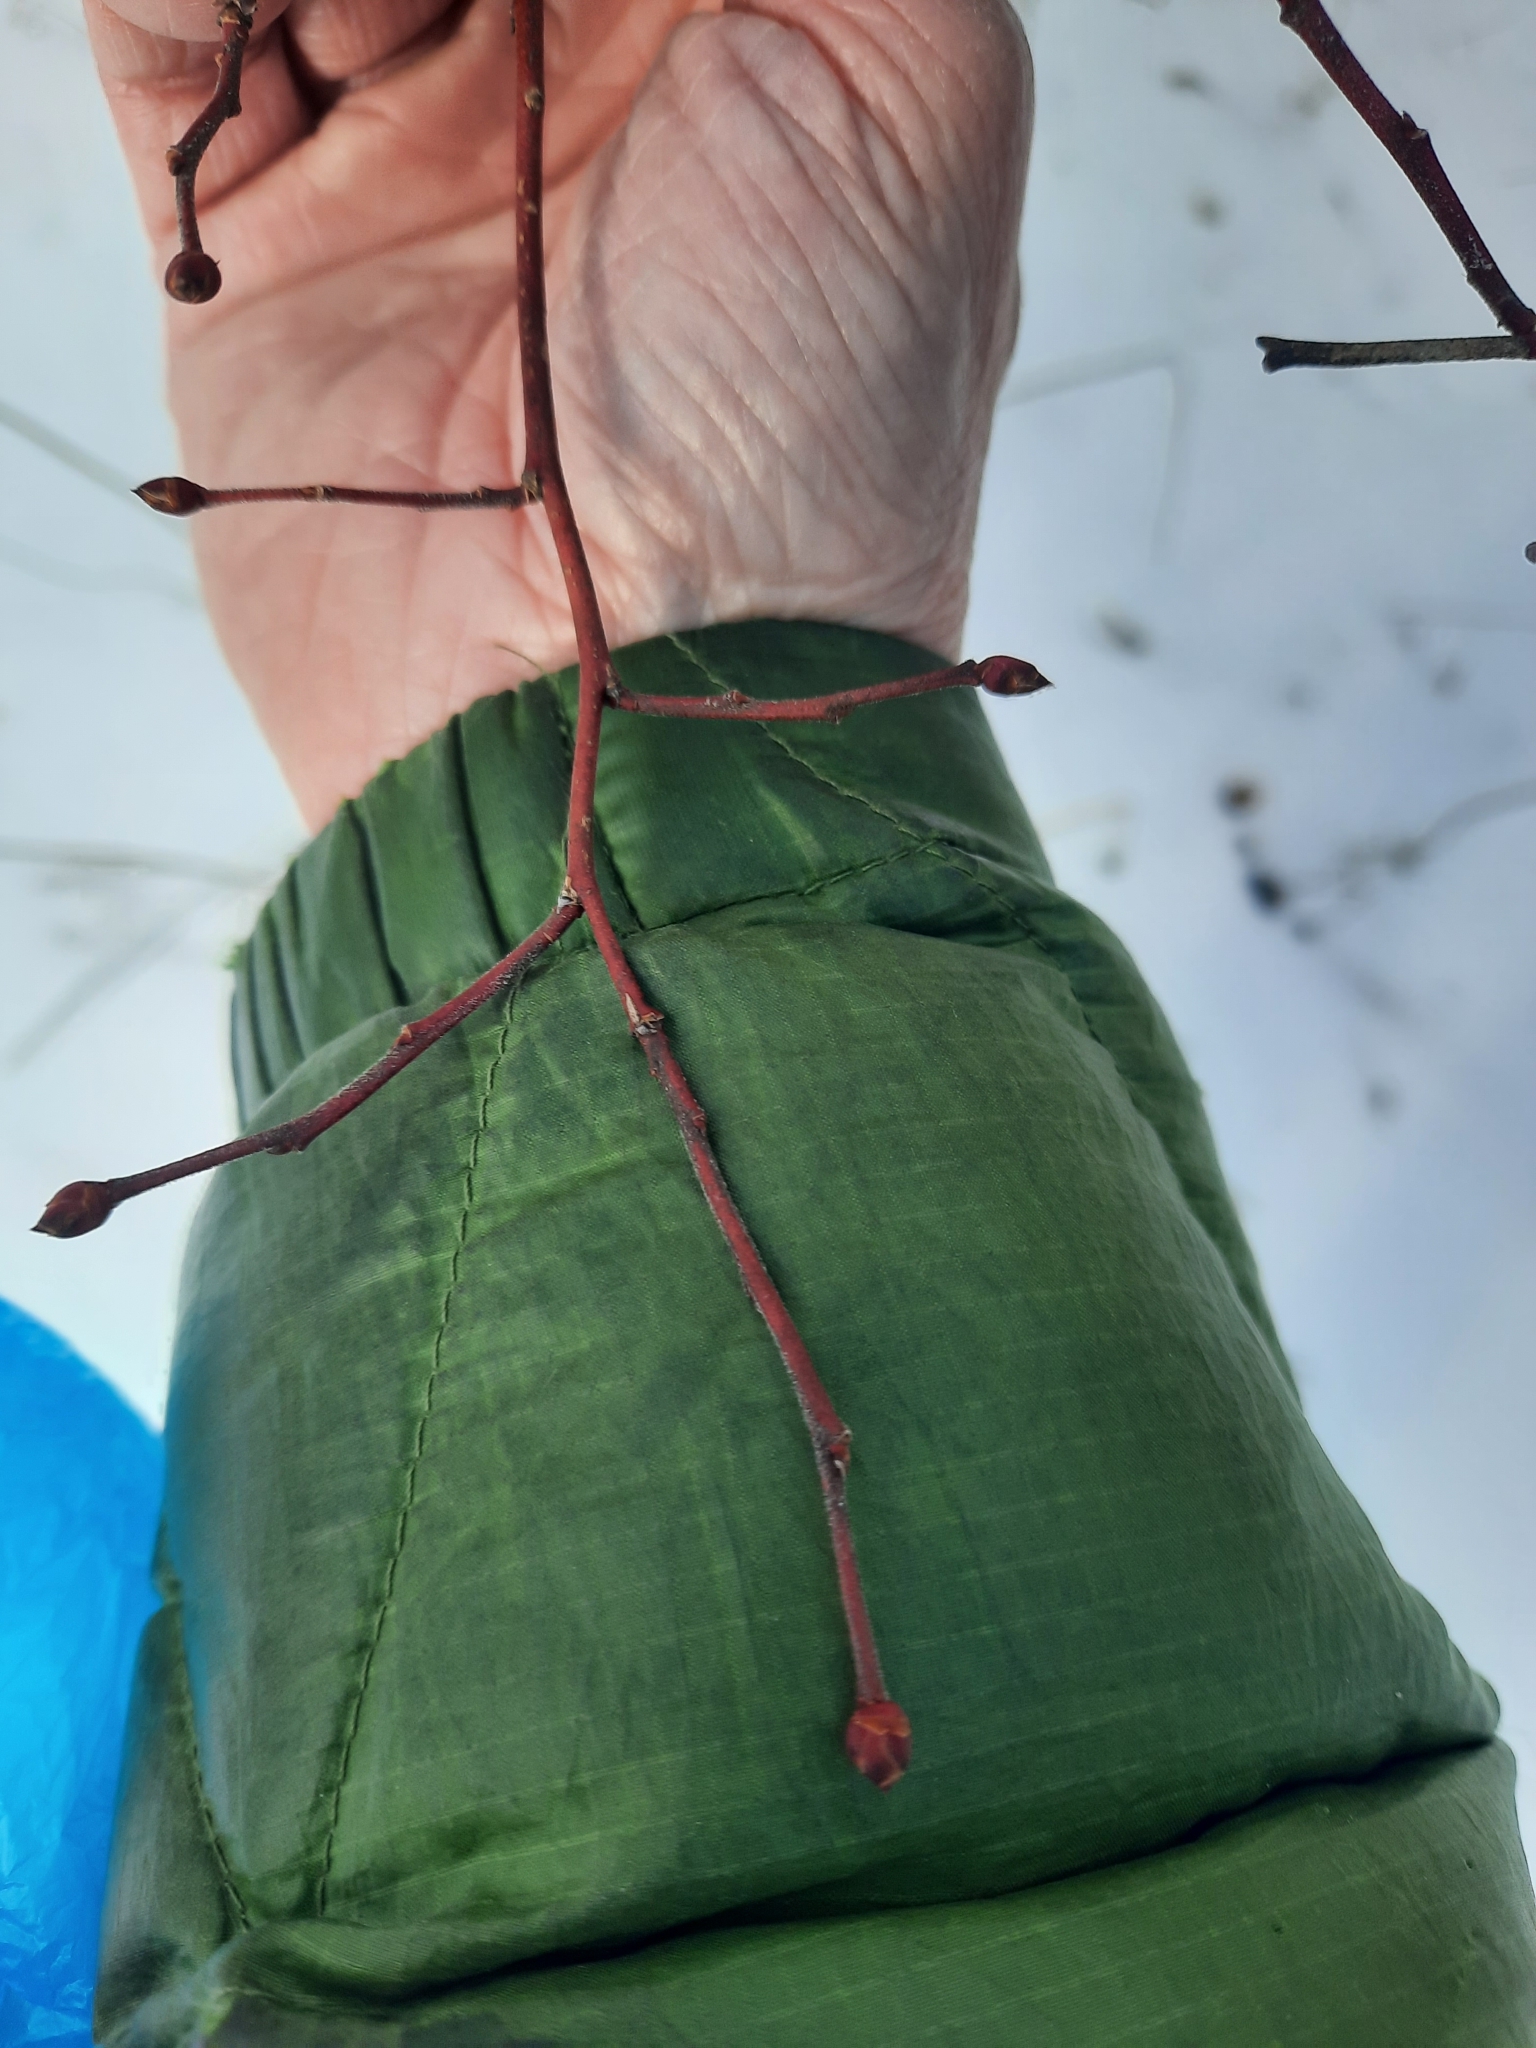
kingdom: Plantae
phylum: Tracheophyta
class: Magnoliopsida
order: Ericales
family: Ericaceae
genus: Vaccinium
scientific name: Vaccinium corymbosum
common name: Blueberry
